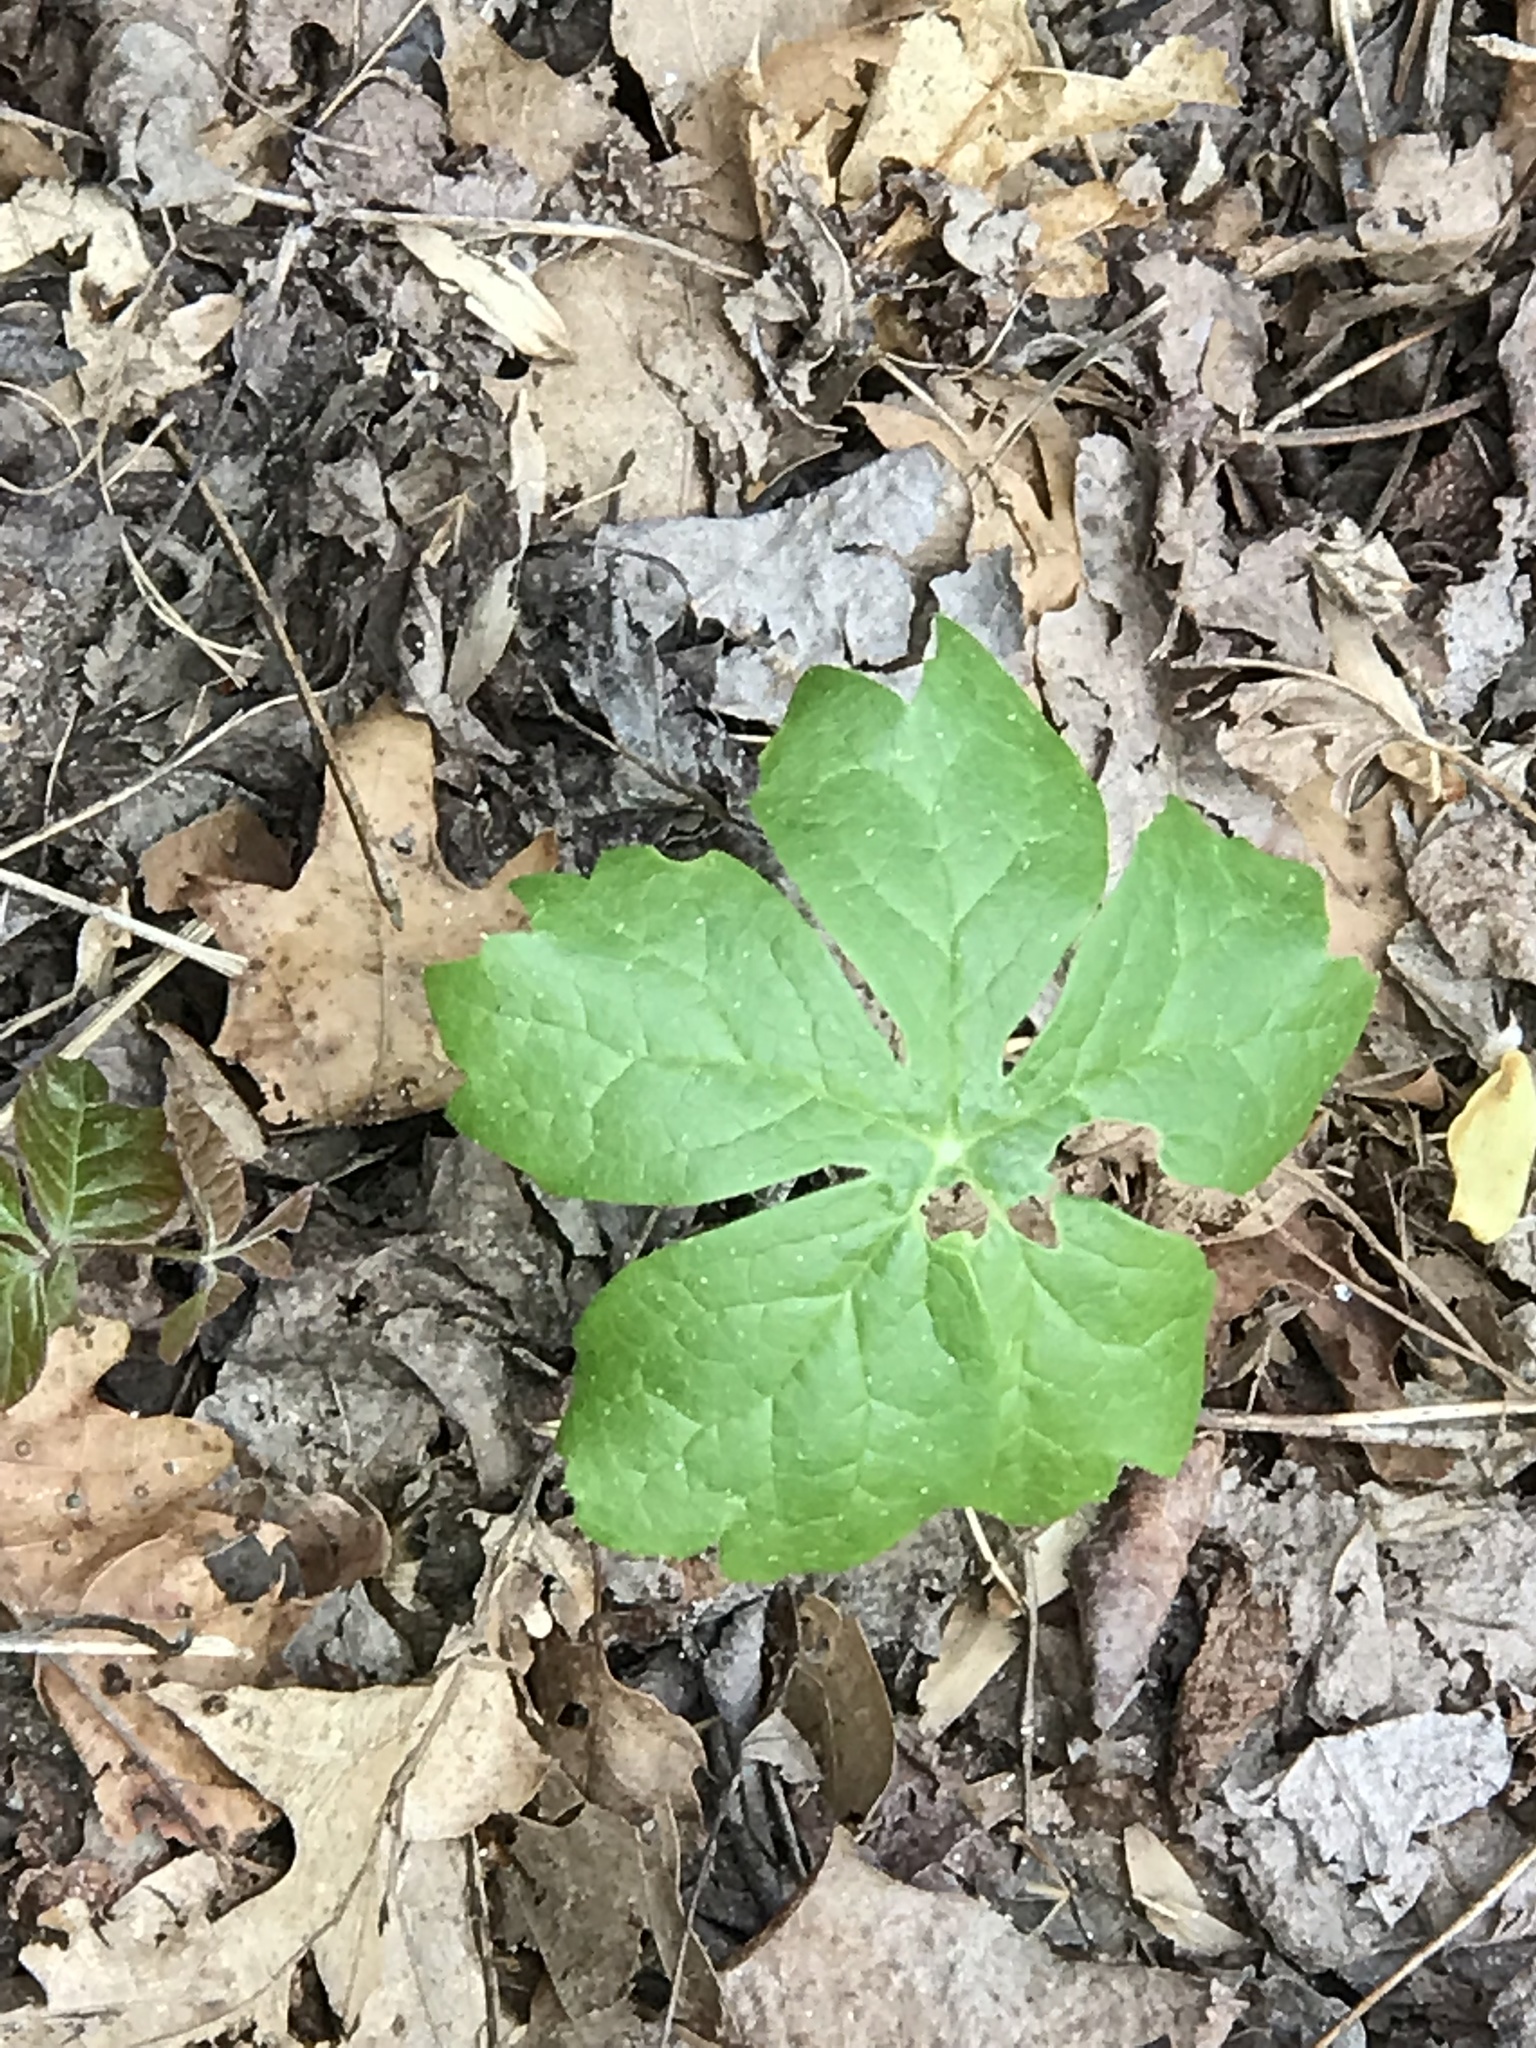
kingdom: Plantae
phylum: Tracheophyta
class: Magnoliopsida
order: Ranunculales
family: Berberidaceae
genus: Podophyllum
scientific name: Podophyllum peltatum
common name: Wild mandrake
